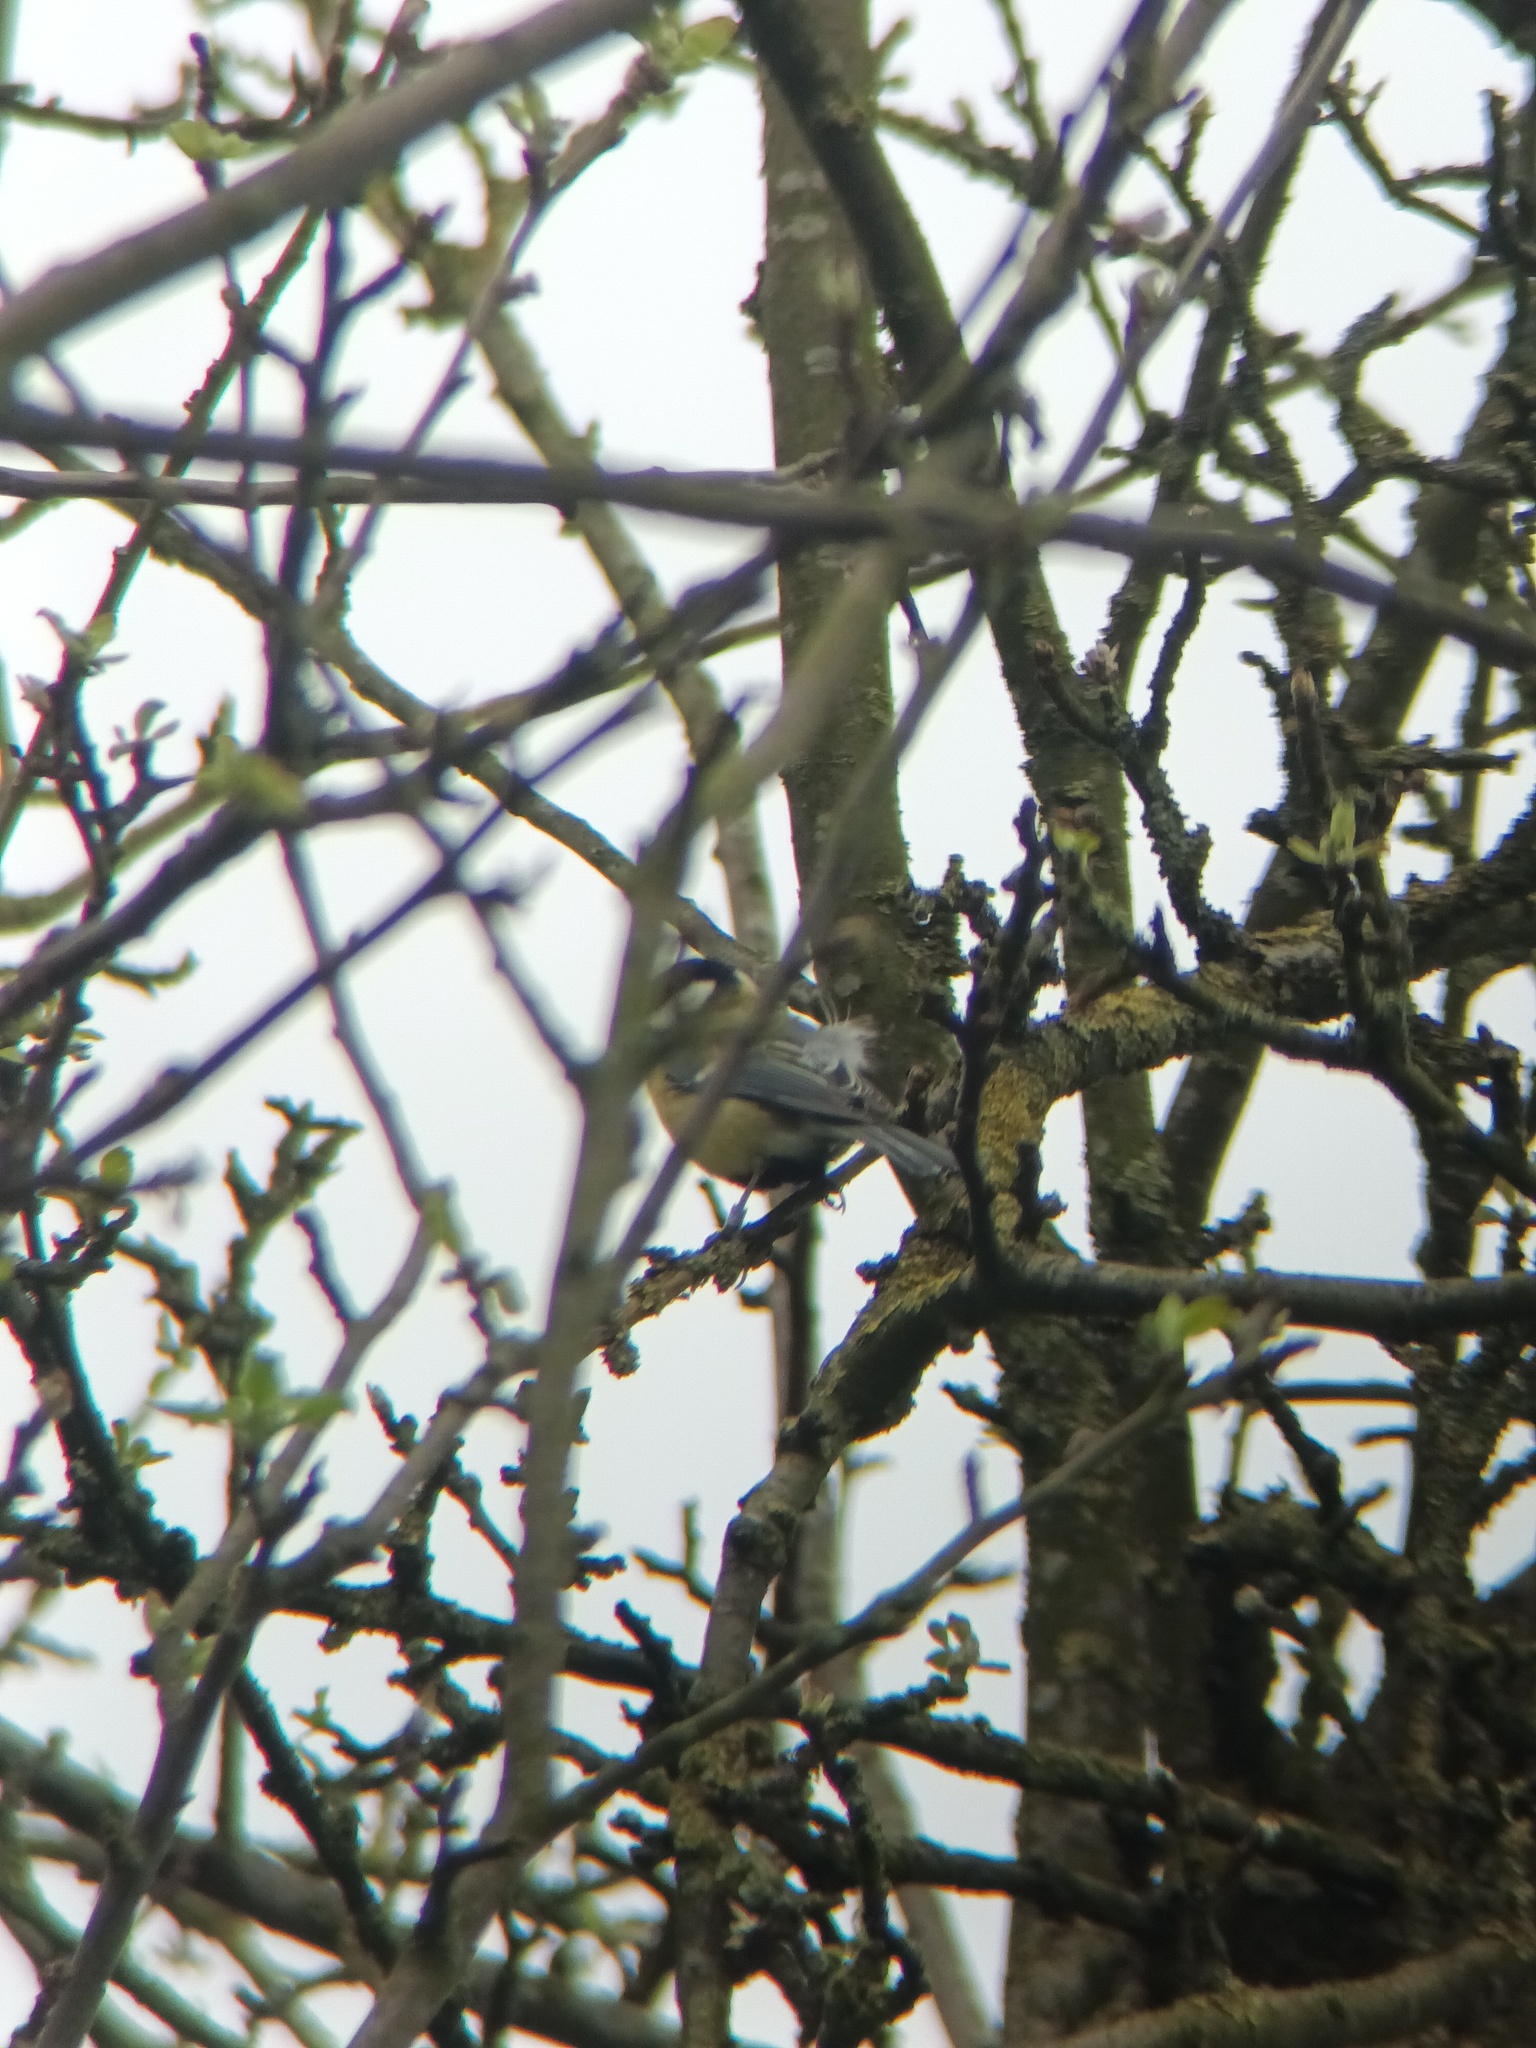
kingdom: Animalia
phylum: Chordata
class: Aves
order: Passeriformes
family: Paridae
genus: Parus
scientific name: Parus major
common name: Great tit
